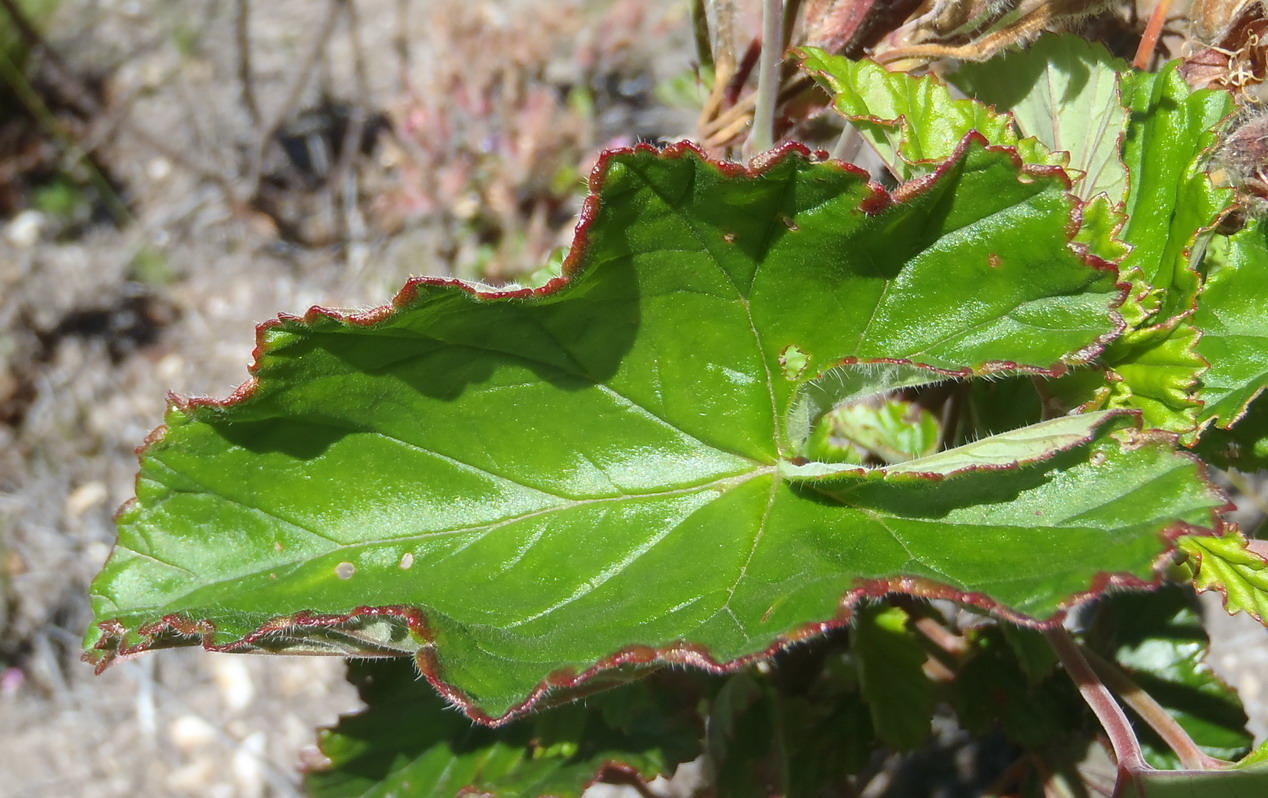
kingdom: Plantae
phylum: Tracheophyta
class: Magnoliopsida
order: Geraniales
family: Geraniaceae
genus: Pelargonium
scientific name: Pelargonium cordifolium
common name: Heart-leaf pelargonium
